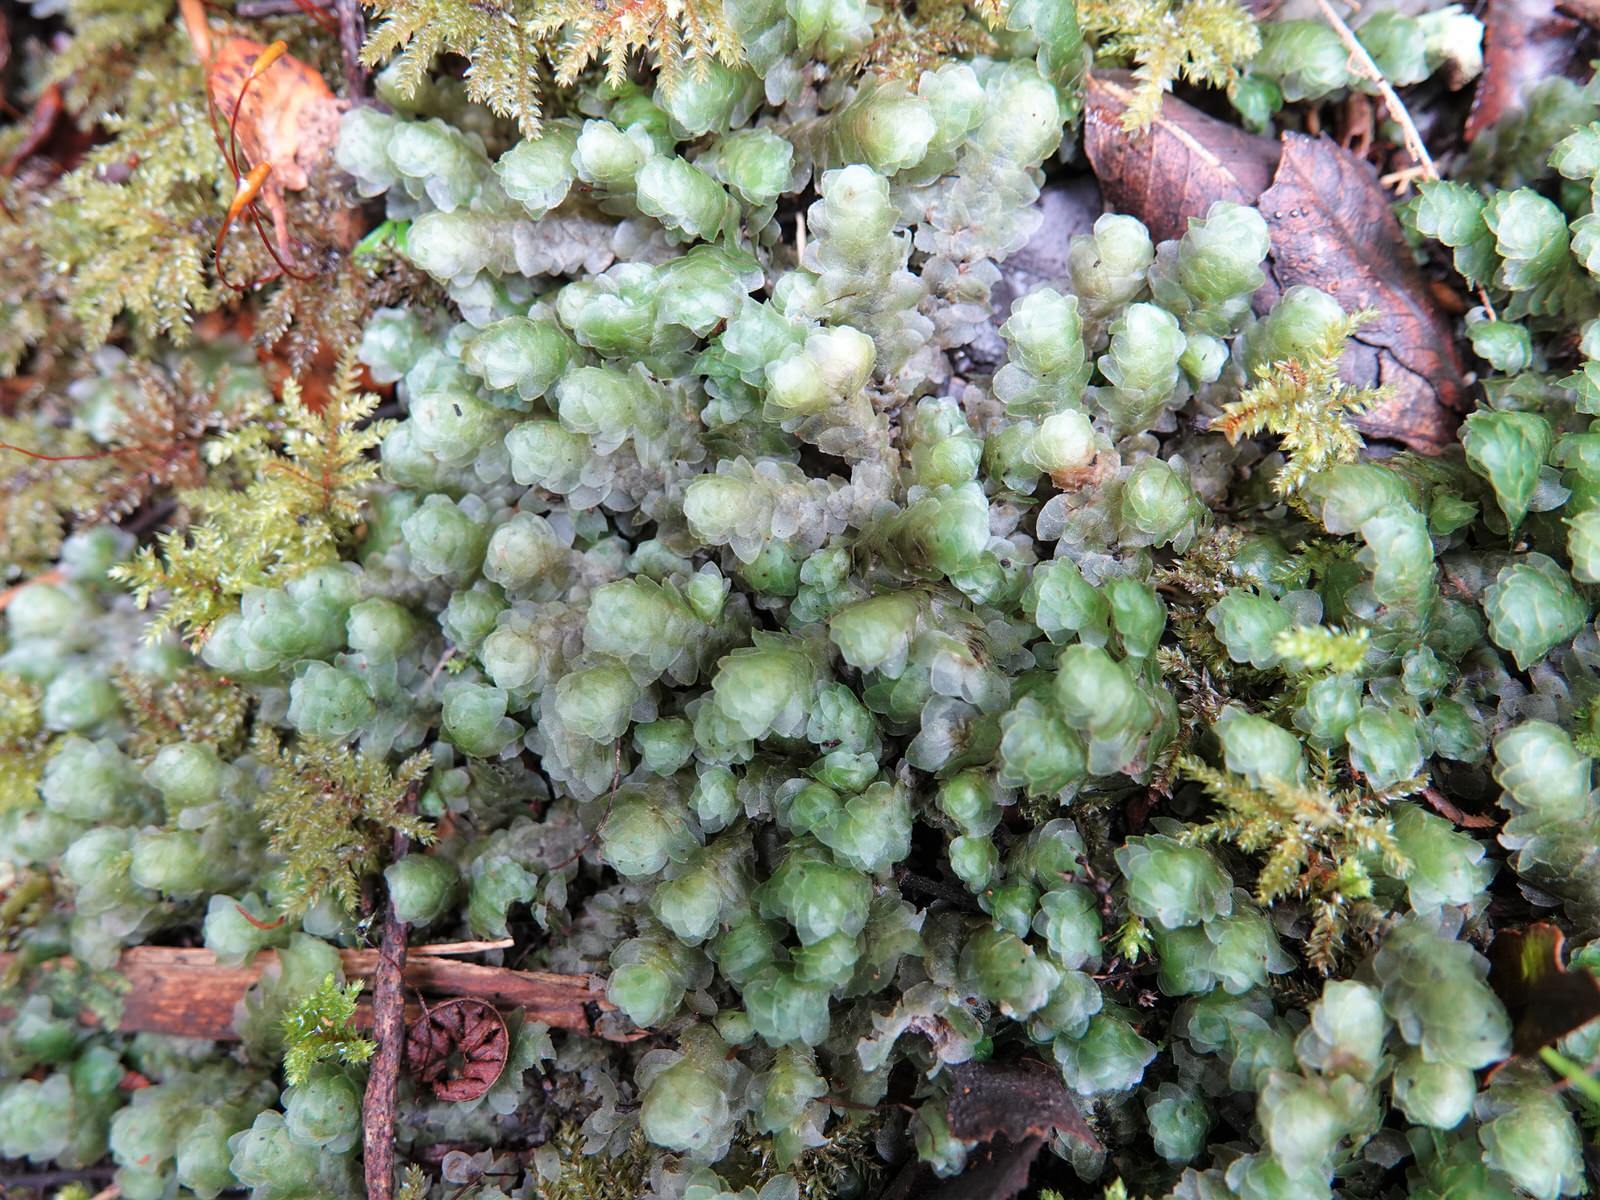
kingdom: Plantae
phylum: Bryophyta
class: Bryopsida
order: Hookeriales
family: Daltoniaceae
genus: Achrophyllum
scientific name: Achrophyllum quadrifarium
